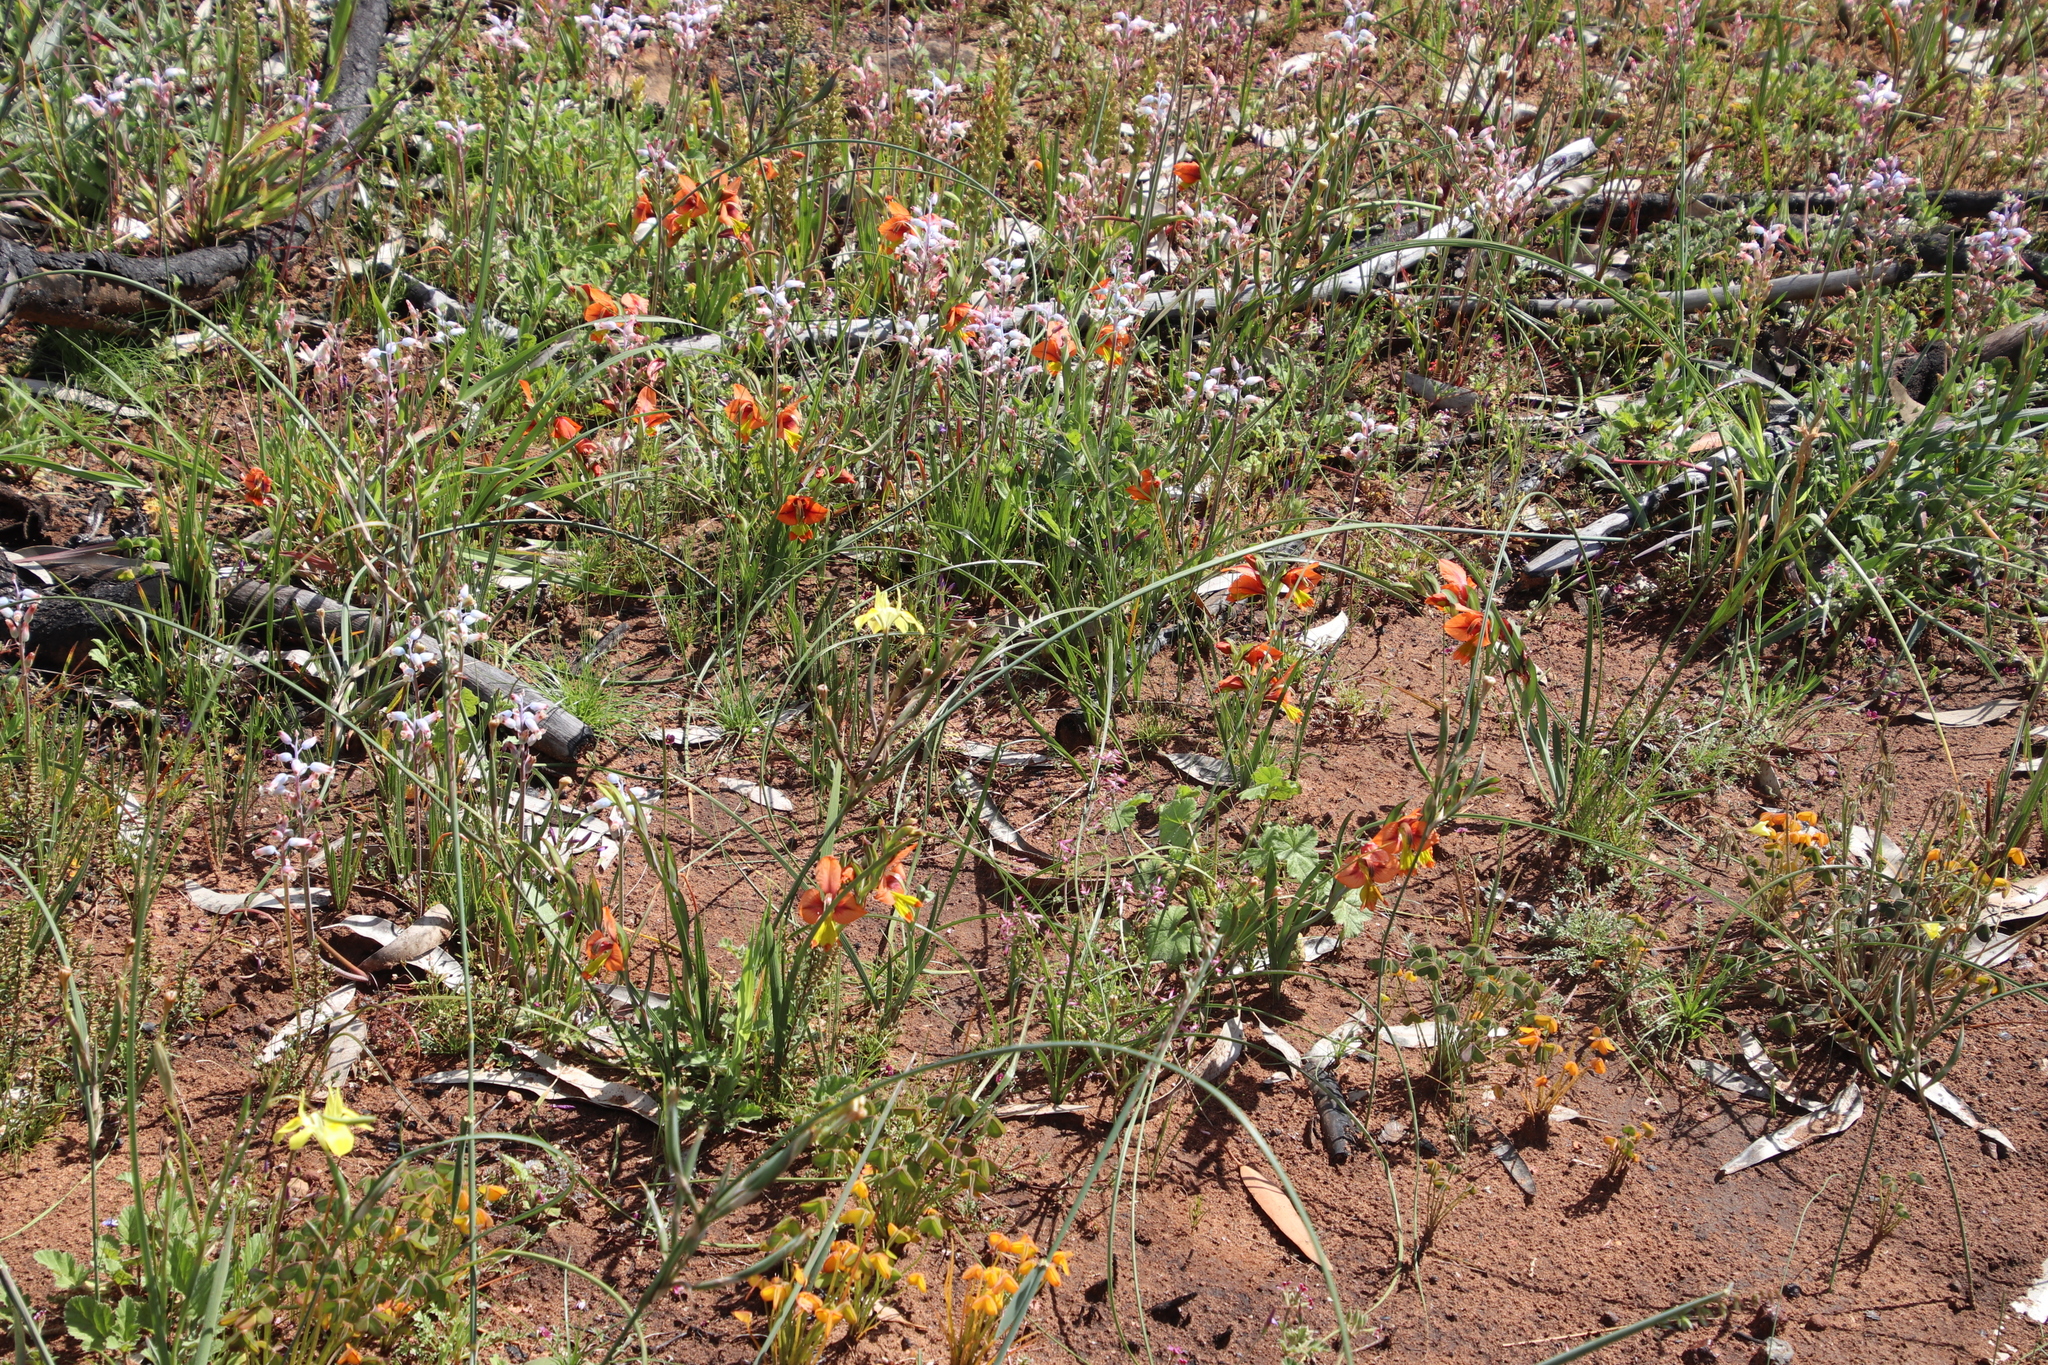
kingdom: Plantae
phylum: Tracheophyta
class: Liliopsida
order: Asparagales
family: Iridaceae
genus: Gladiolus
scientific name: Gladiolus alatus
